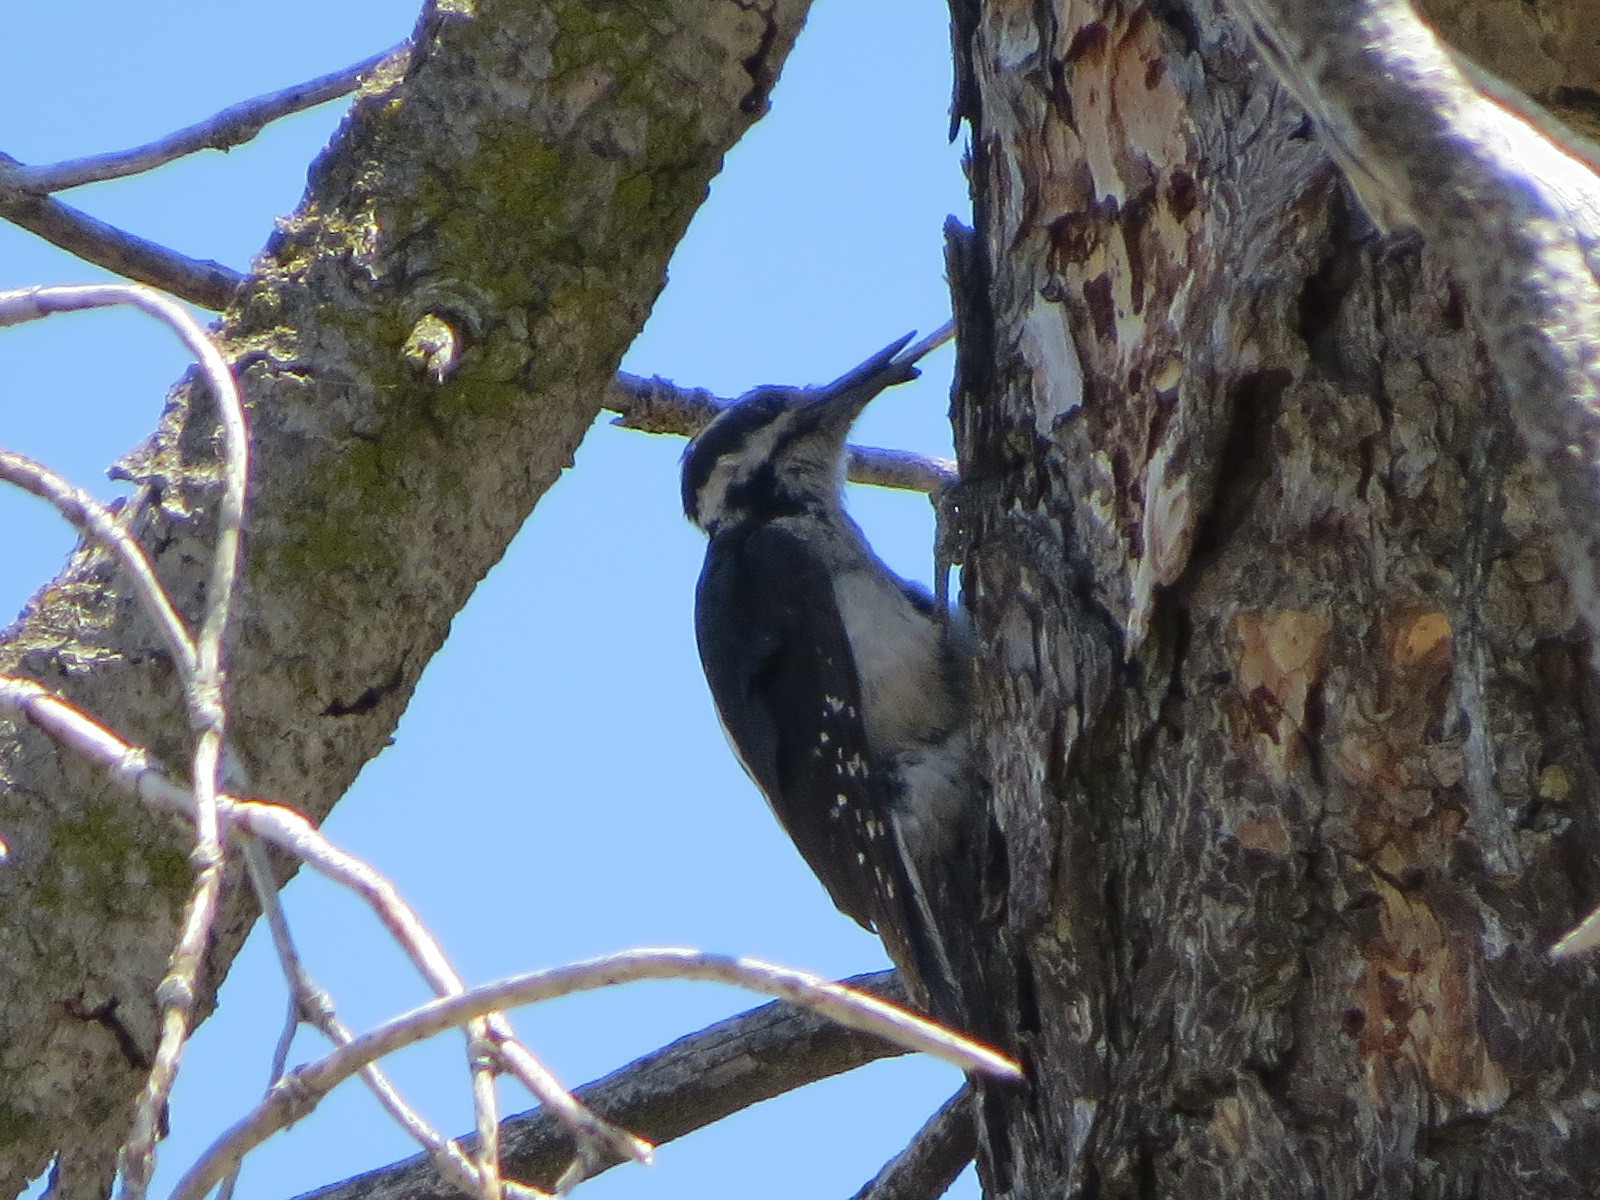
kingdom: Animalia
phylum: Chordata
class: Aves
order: Piciformes
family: Picidae
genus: Leuconotopicus
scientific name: Leuconotopicus villosus
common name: Hairy woodpecker
